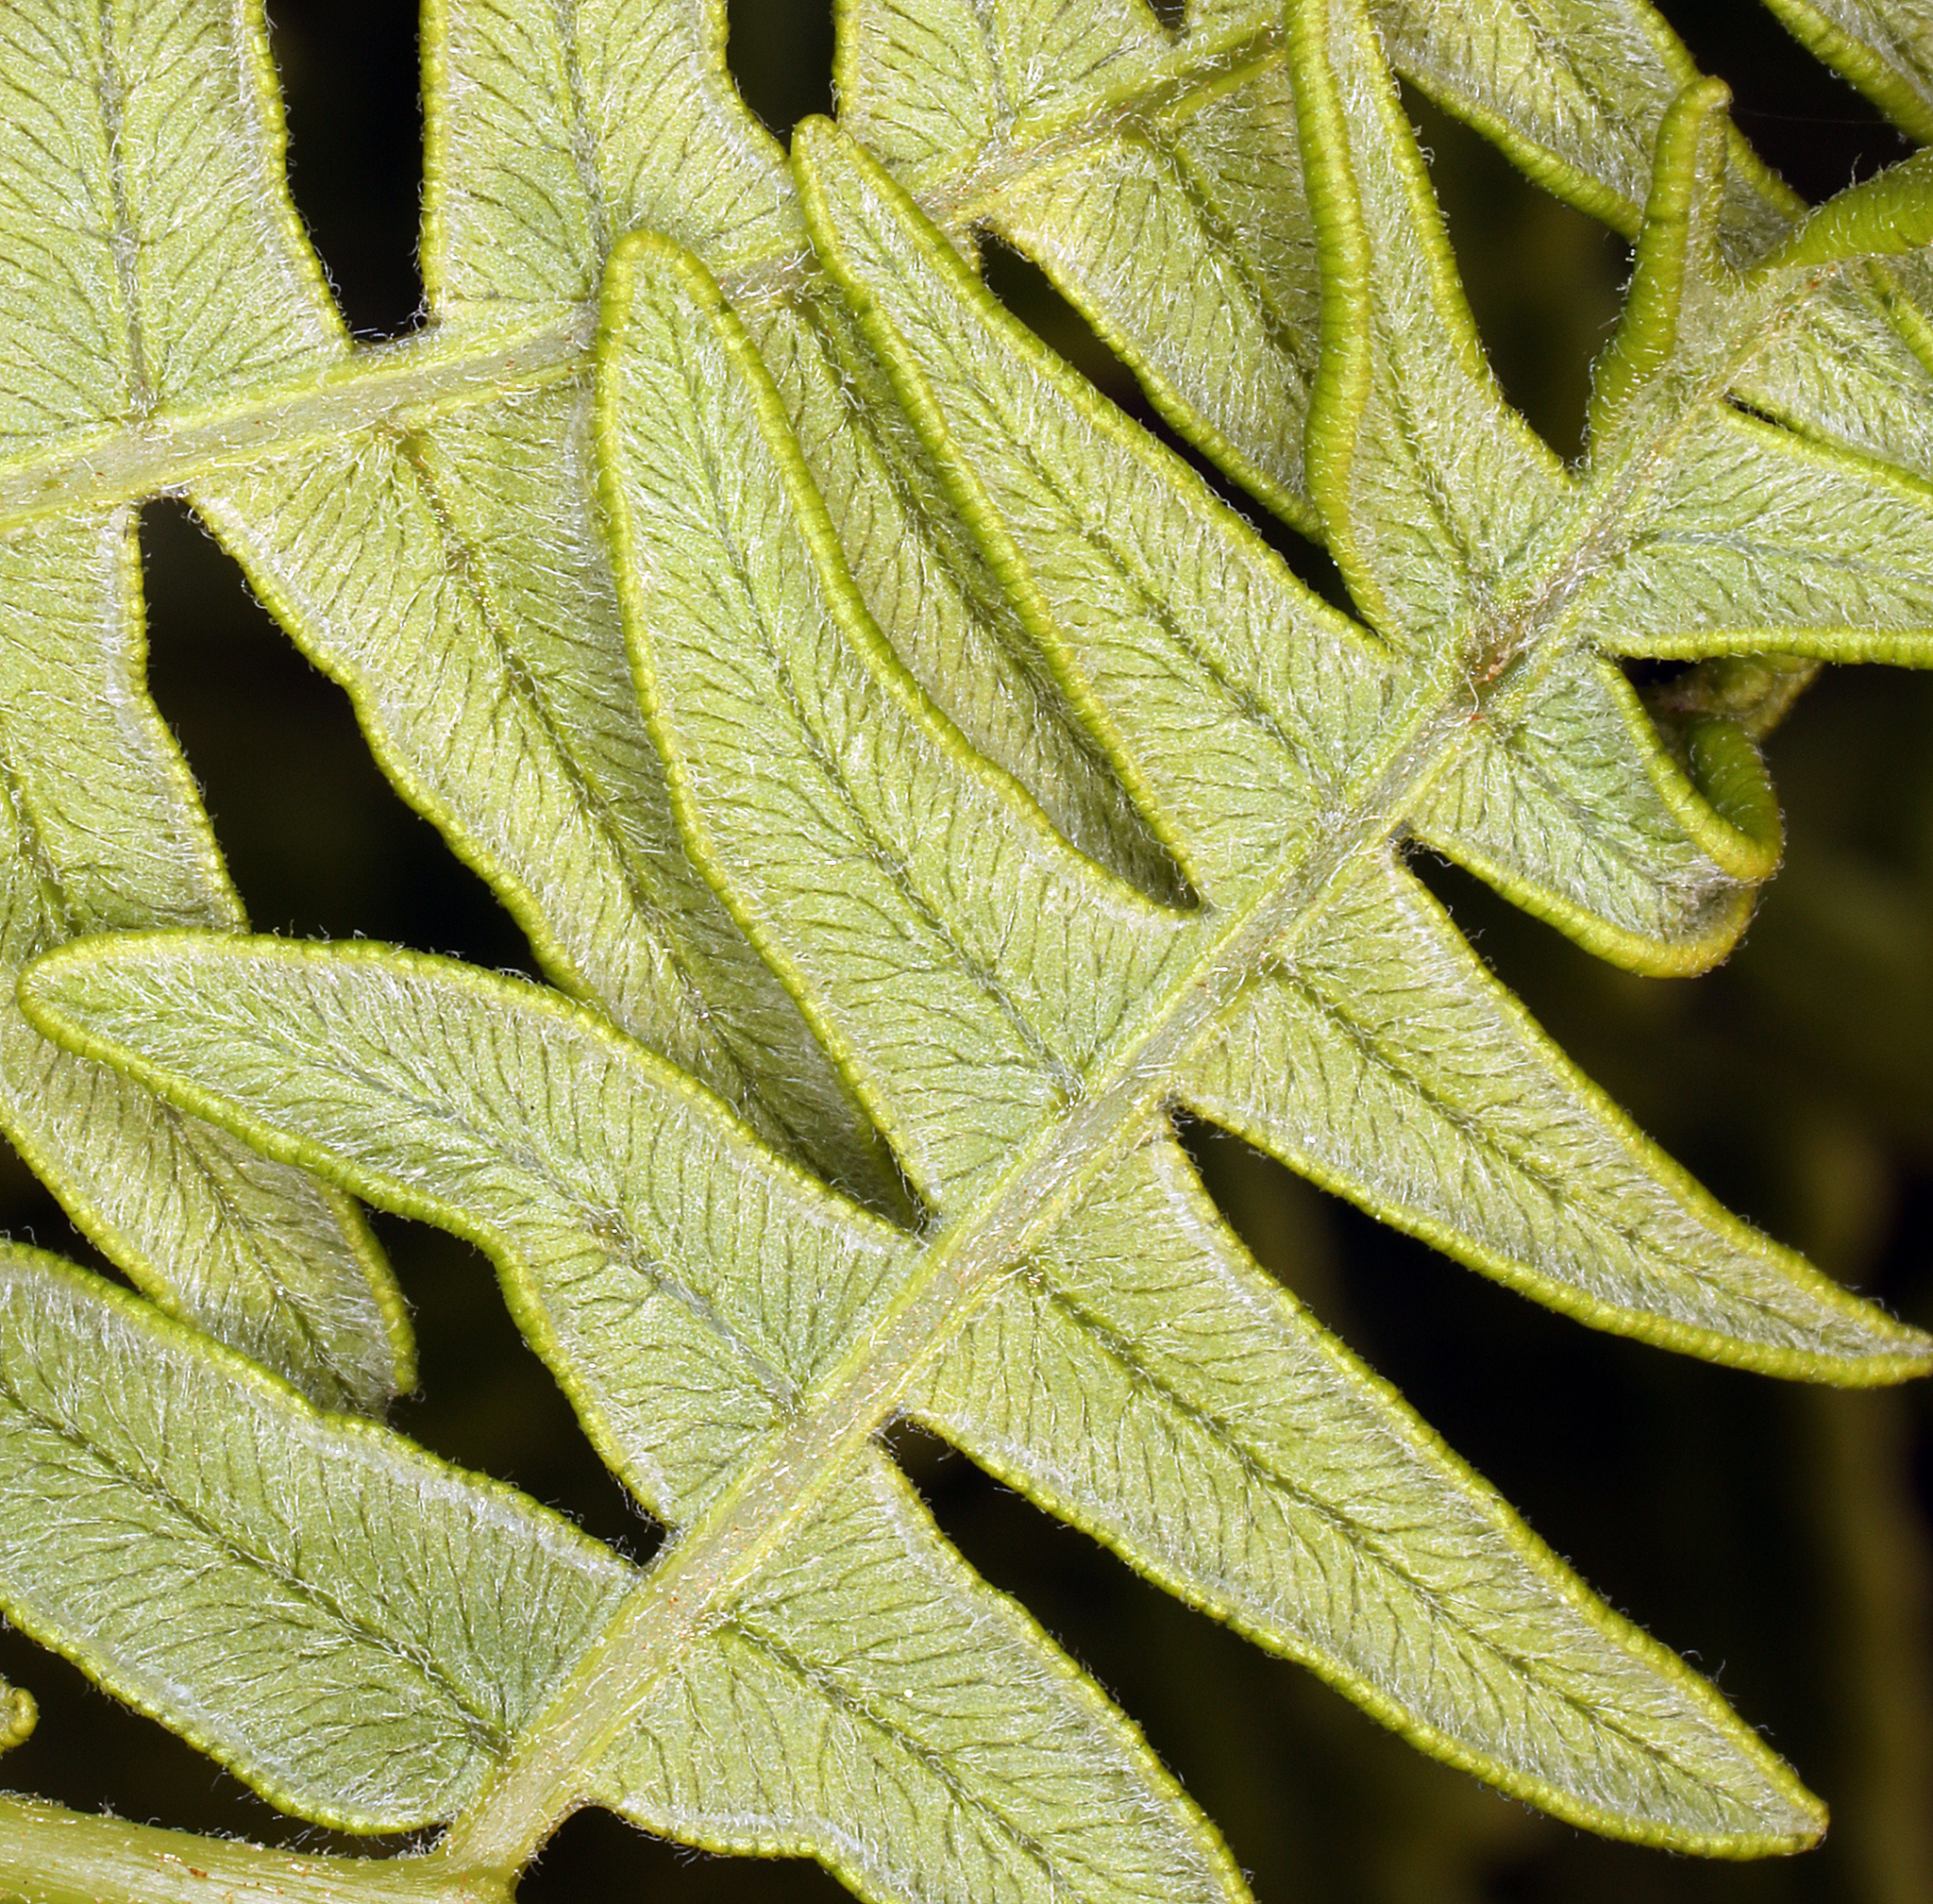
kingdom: Plantae
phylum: Tracheophyta
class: Polypodiopsida
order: Polypodiales
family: Dennstaedtiaceae
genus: Pteridium
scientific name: Pteridium aquilinum
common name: Bracken
